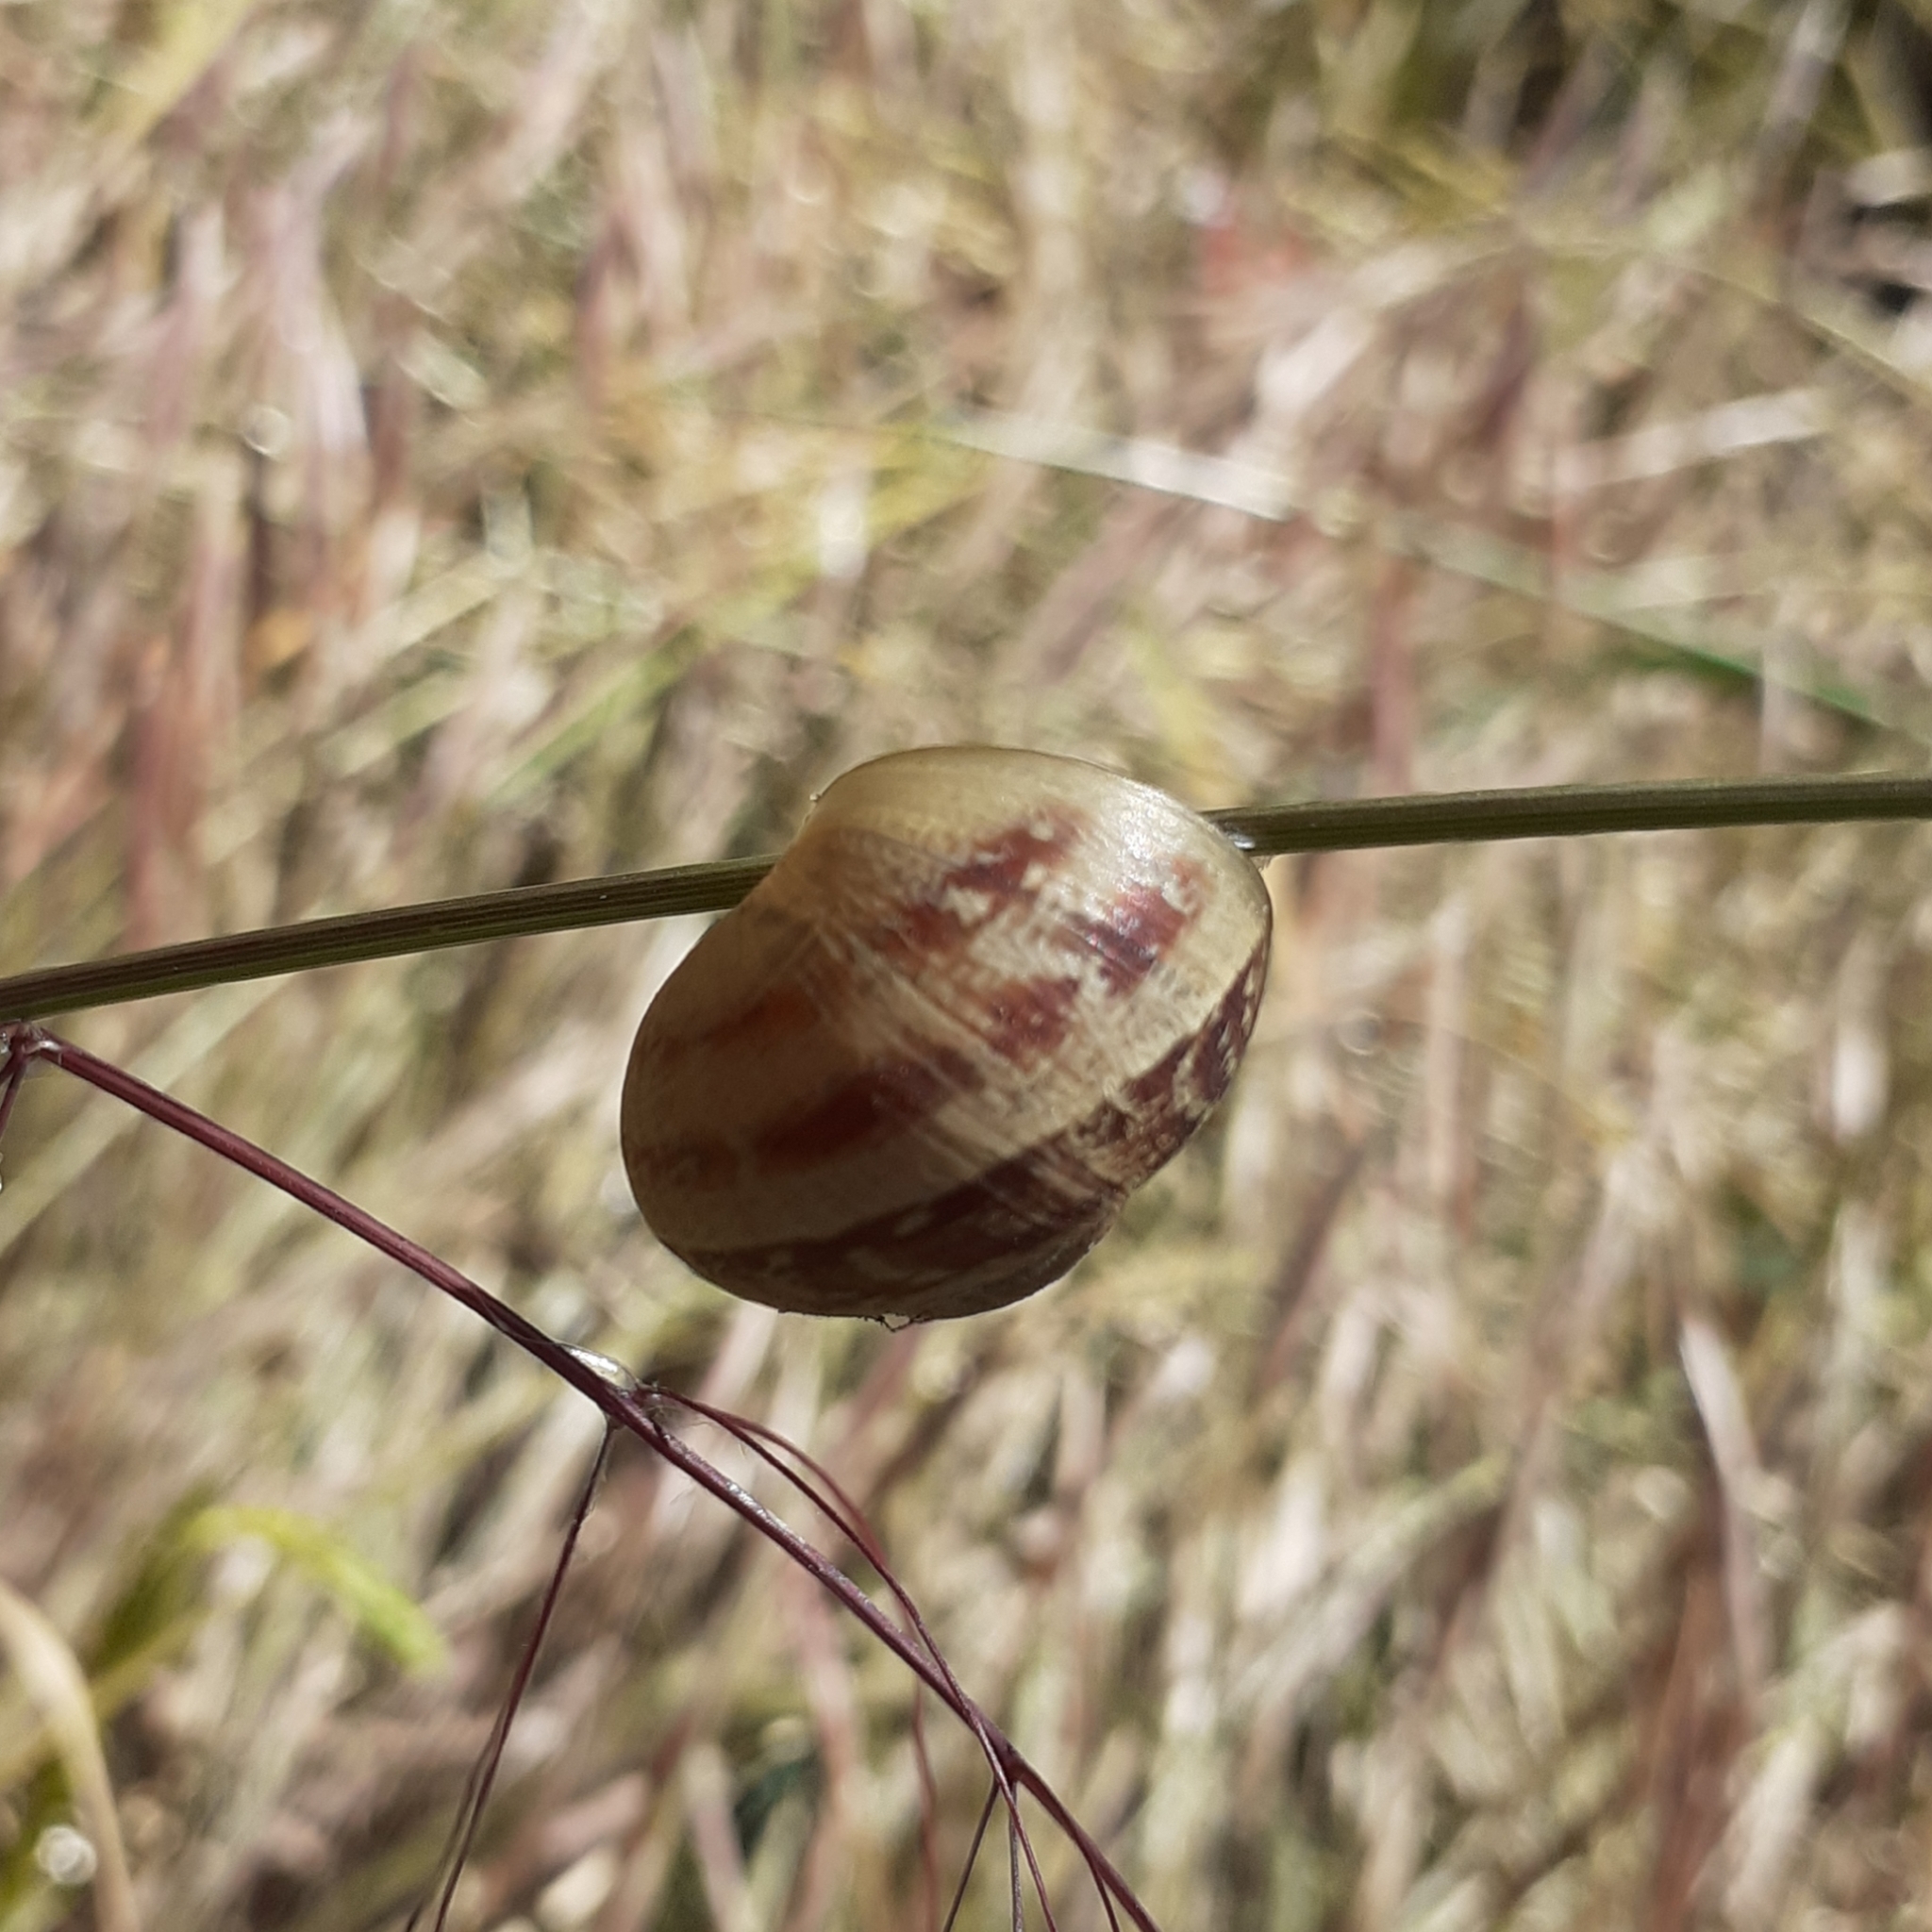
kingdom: Animalia
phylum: Mollusca
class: Gastropoda
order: Stylommatophora
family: Helicidae
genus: Cornu
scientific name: Cornu aspersum
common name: Brown garden snail
